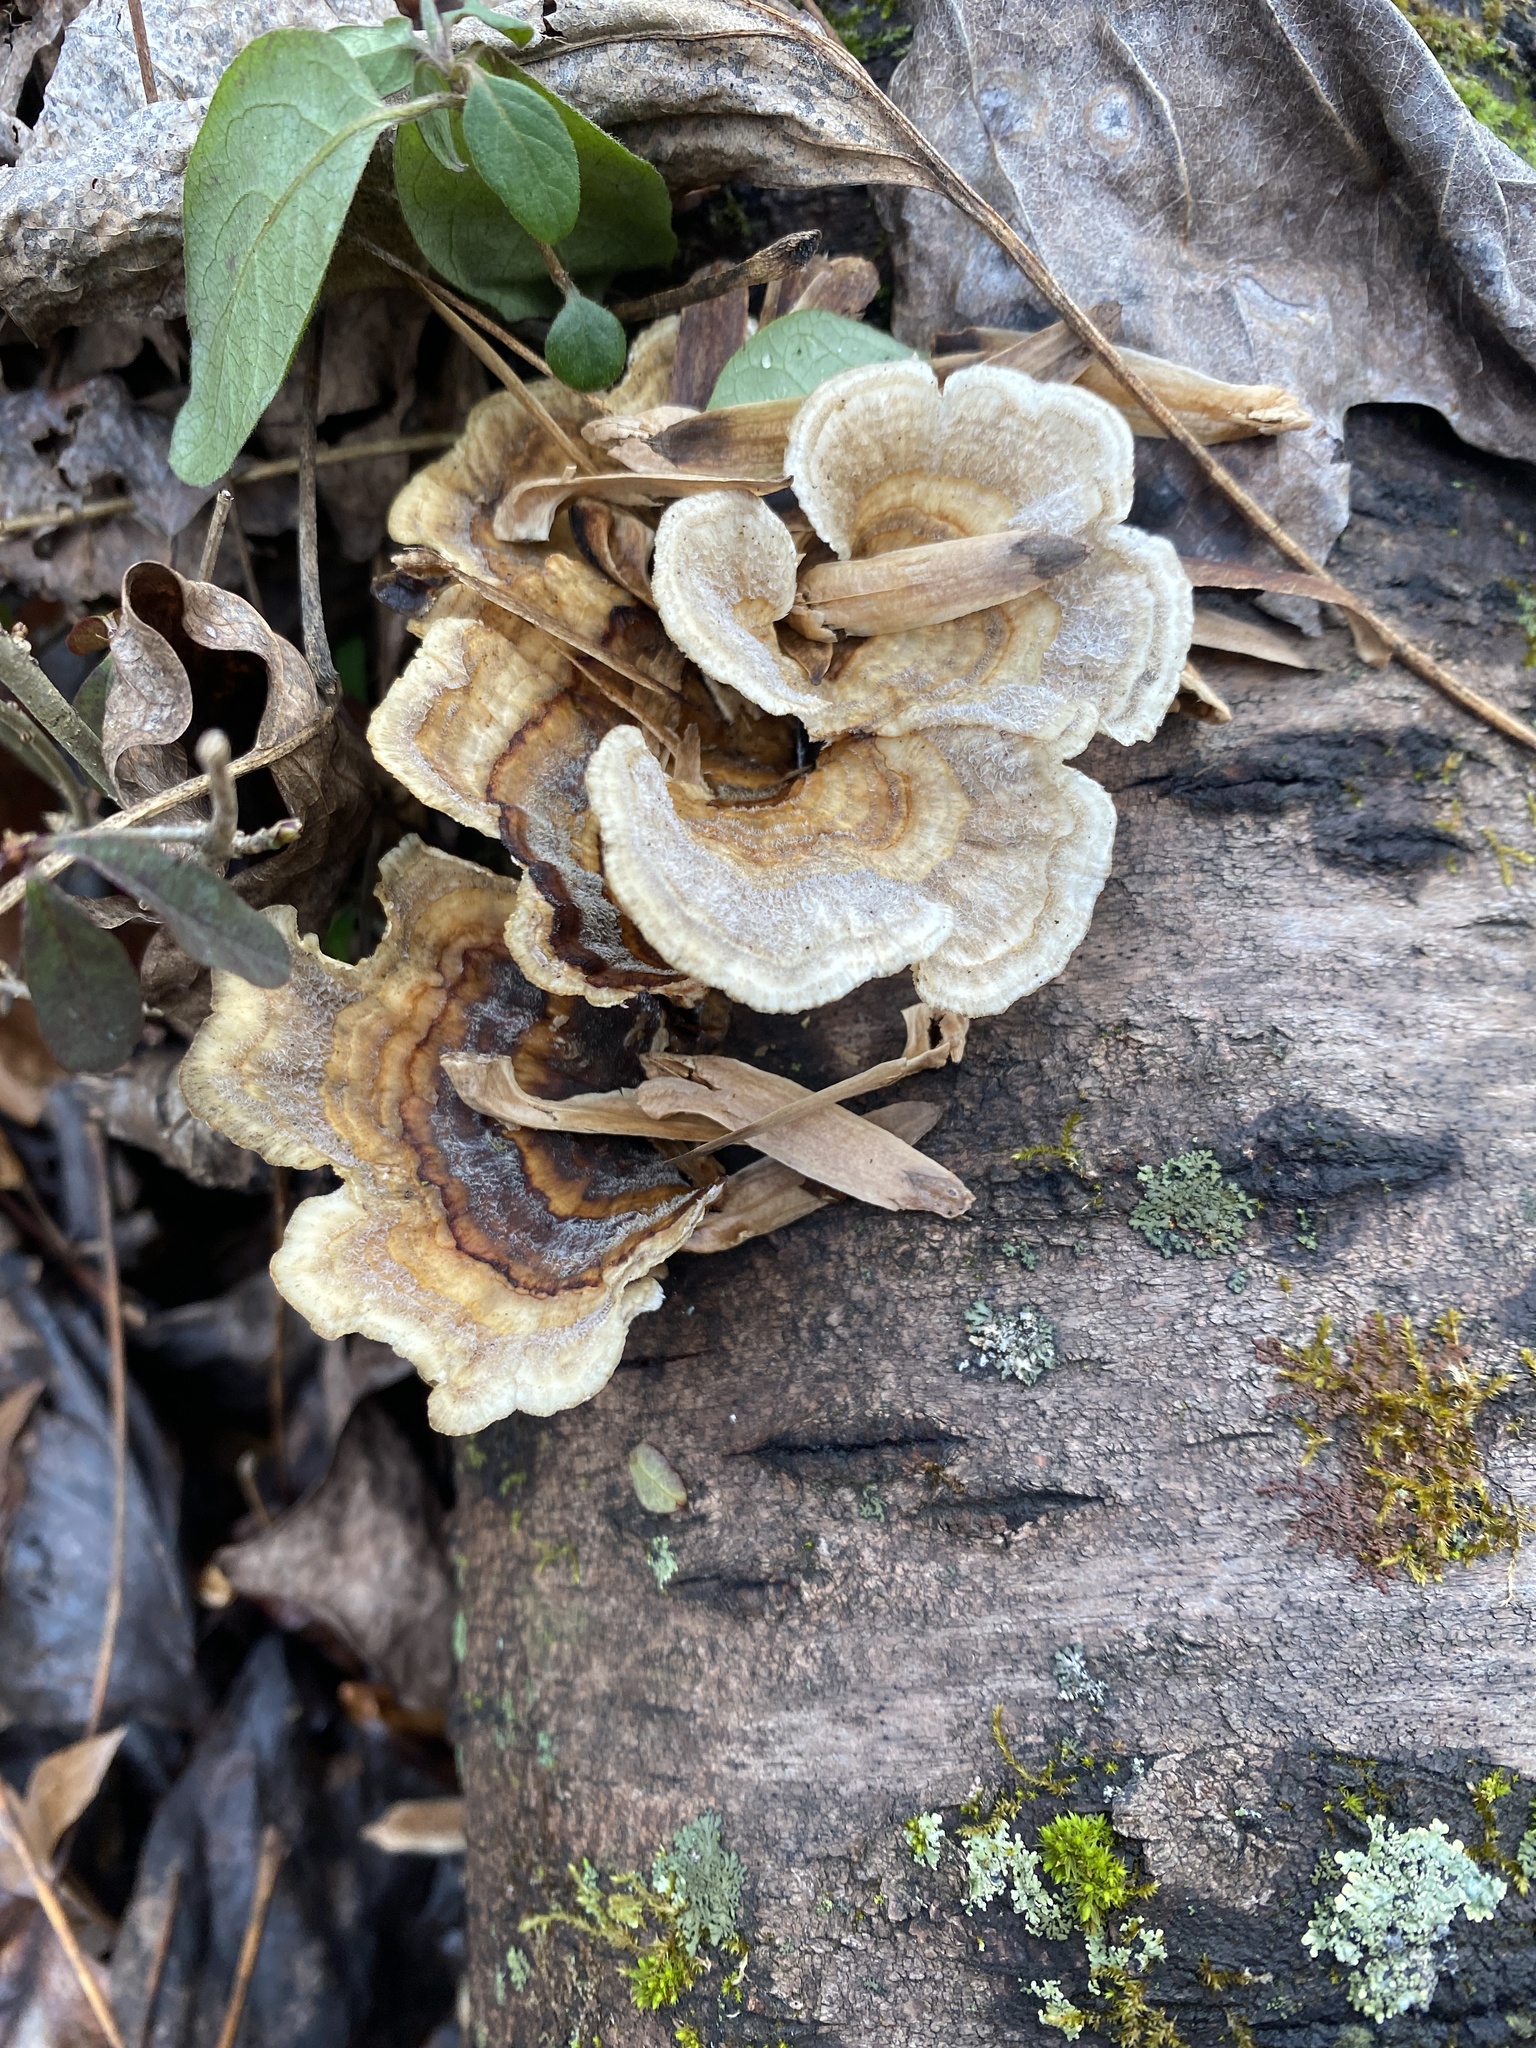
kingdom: Fungi
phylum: Basidiomycota
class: Agaricomycetes
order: Polyporales
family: Polyporaceae
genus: Trametes
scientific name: Trametes versicolor
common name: Turkeytail
